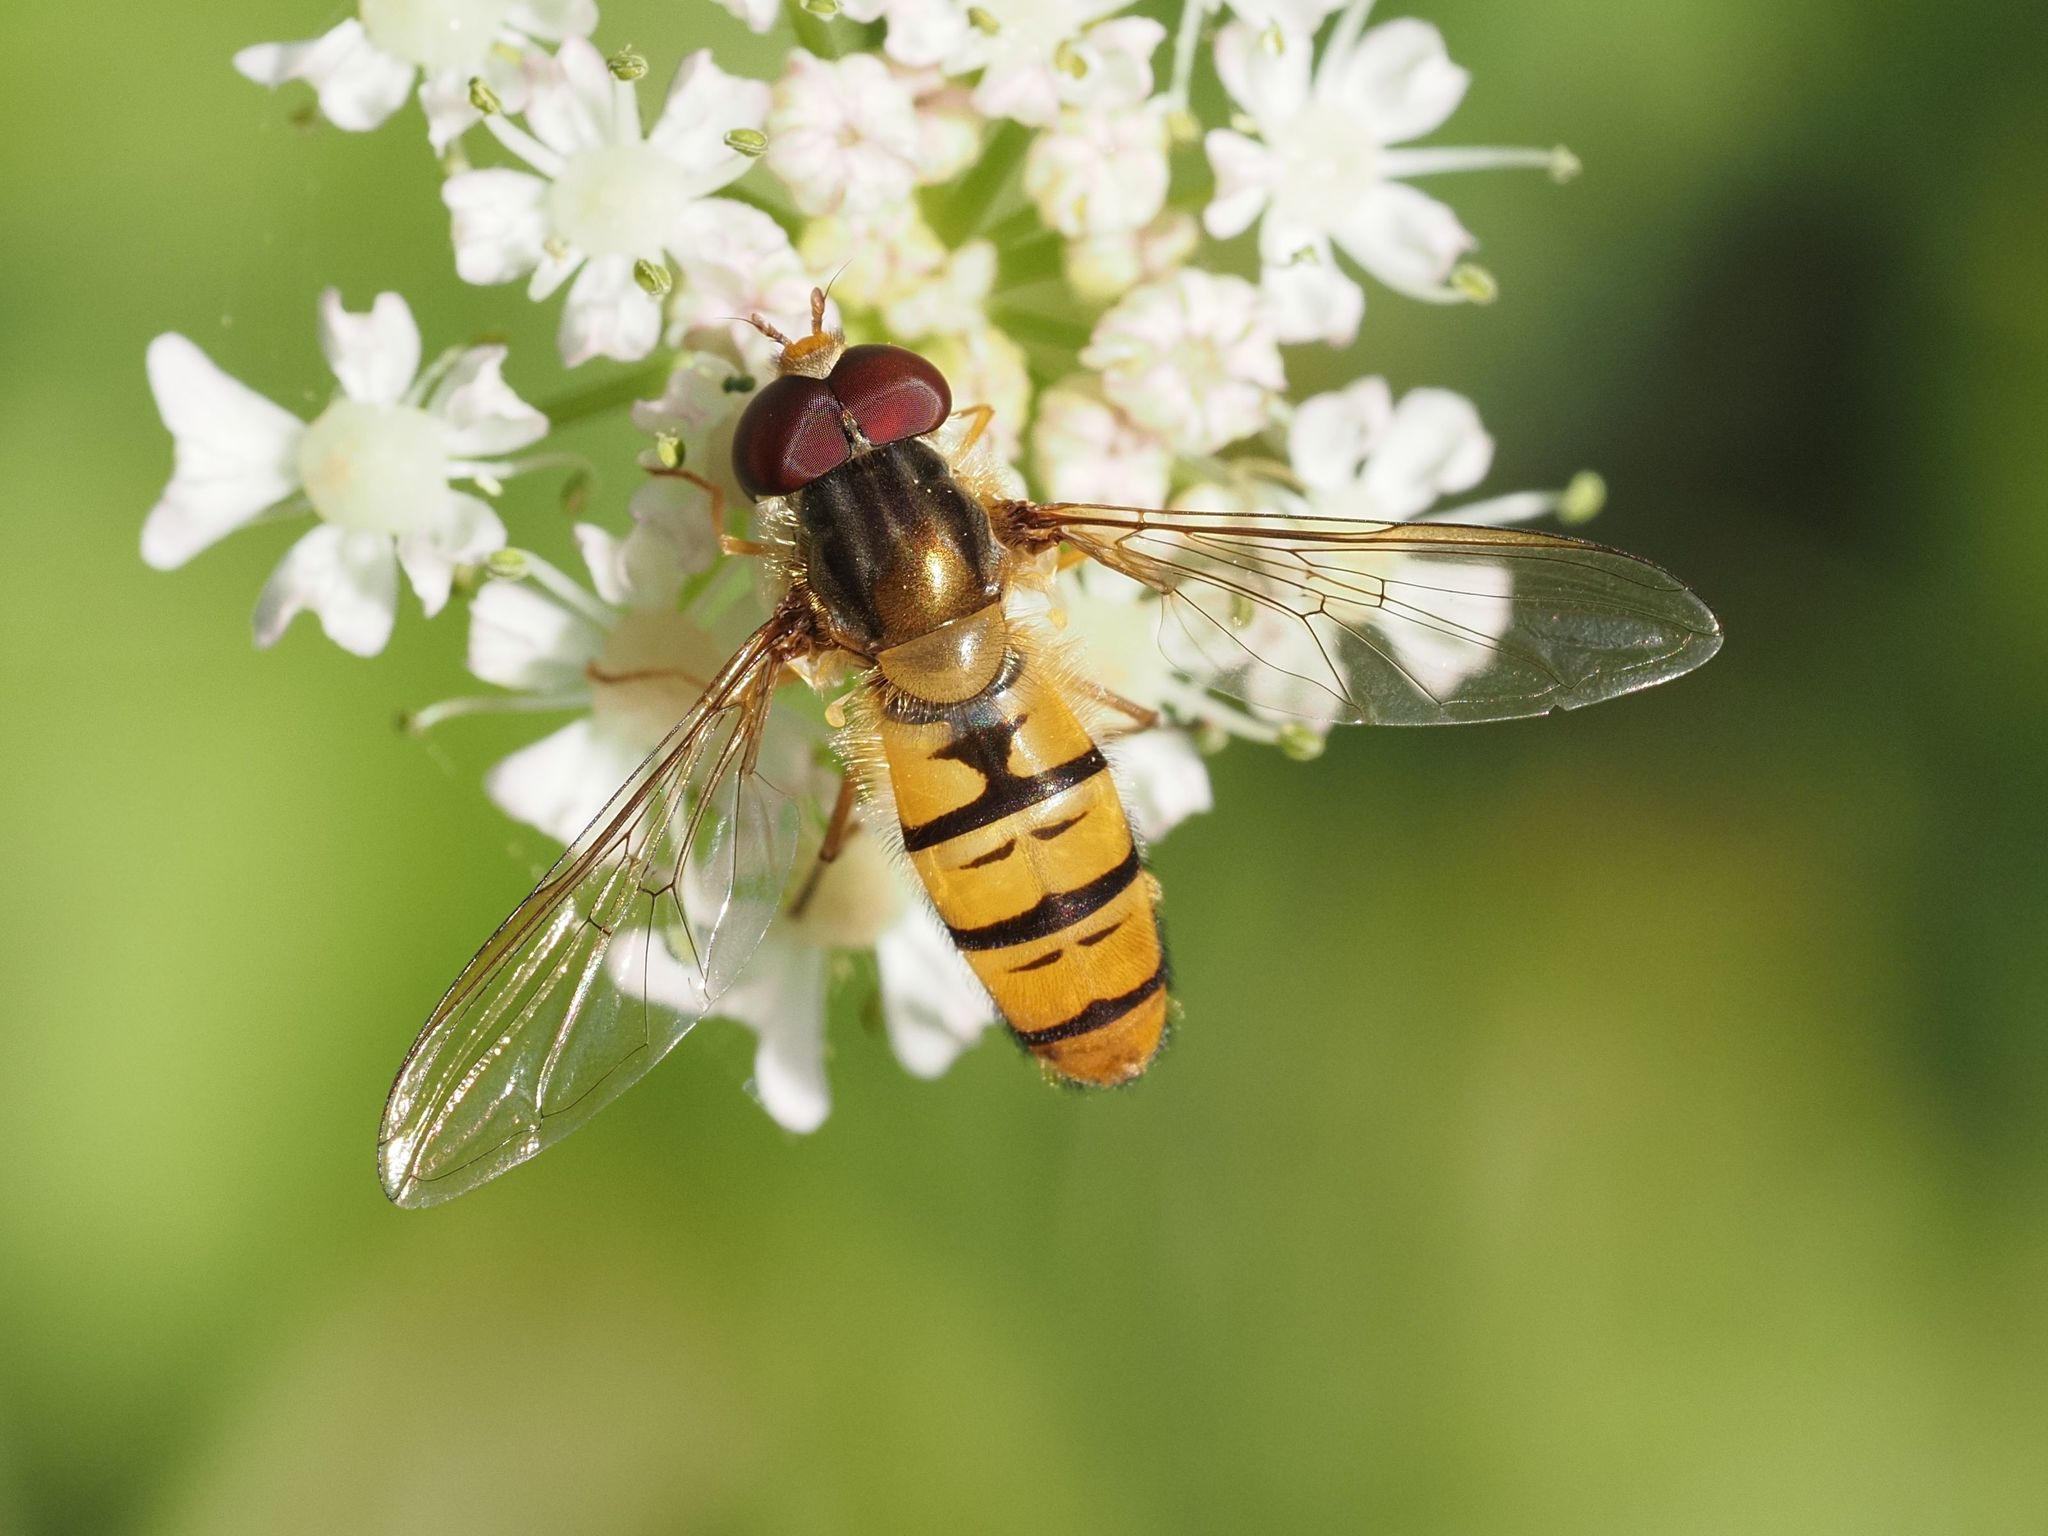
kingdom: Animalia
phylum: Arthropoda
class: Insecta
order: Diptera
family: Syrphidae
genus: Episyrphus
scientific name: Episyrphus balteatus
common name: Marmalade hoverfly
